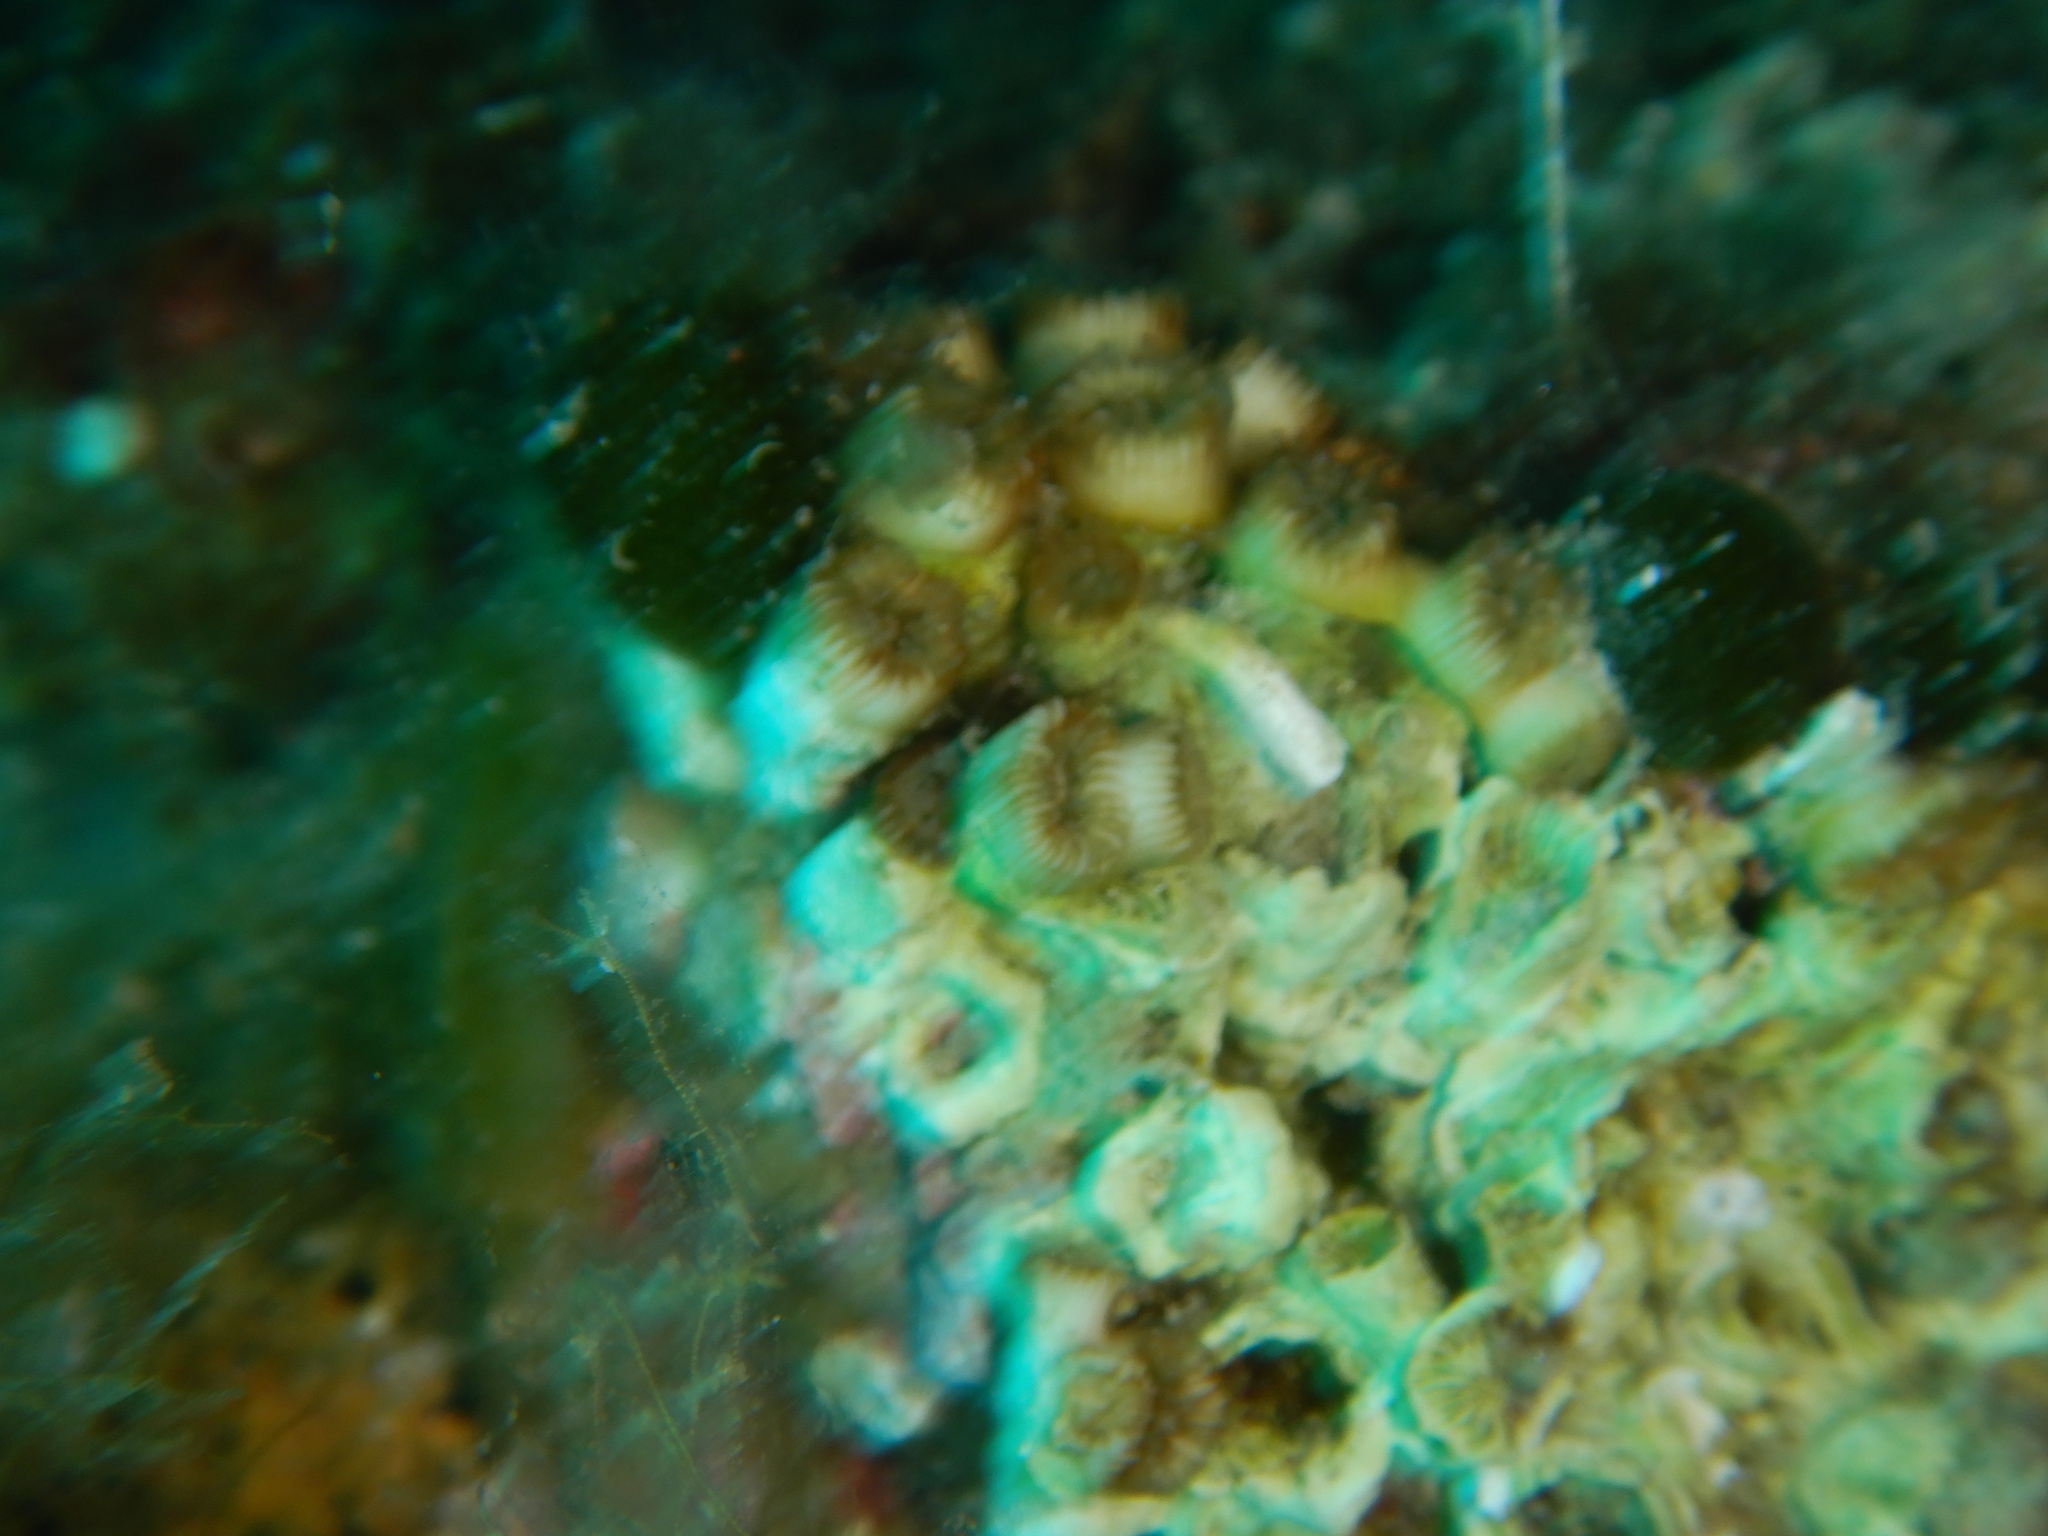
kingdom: Animalia
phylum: Cnidaria
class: Anthozoa
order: Scleractinia
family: Cladocoridae
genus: Cladocora
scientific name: Cladocora caespitosa
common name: Cladocora
